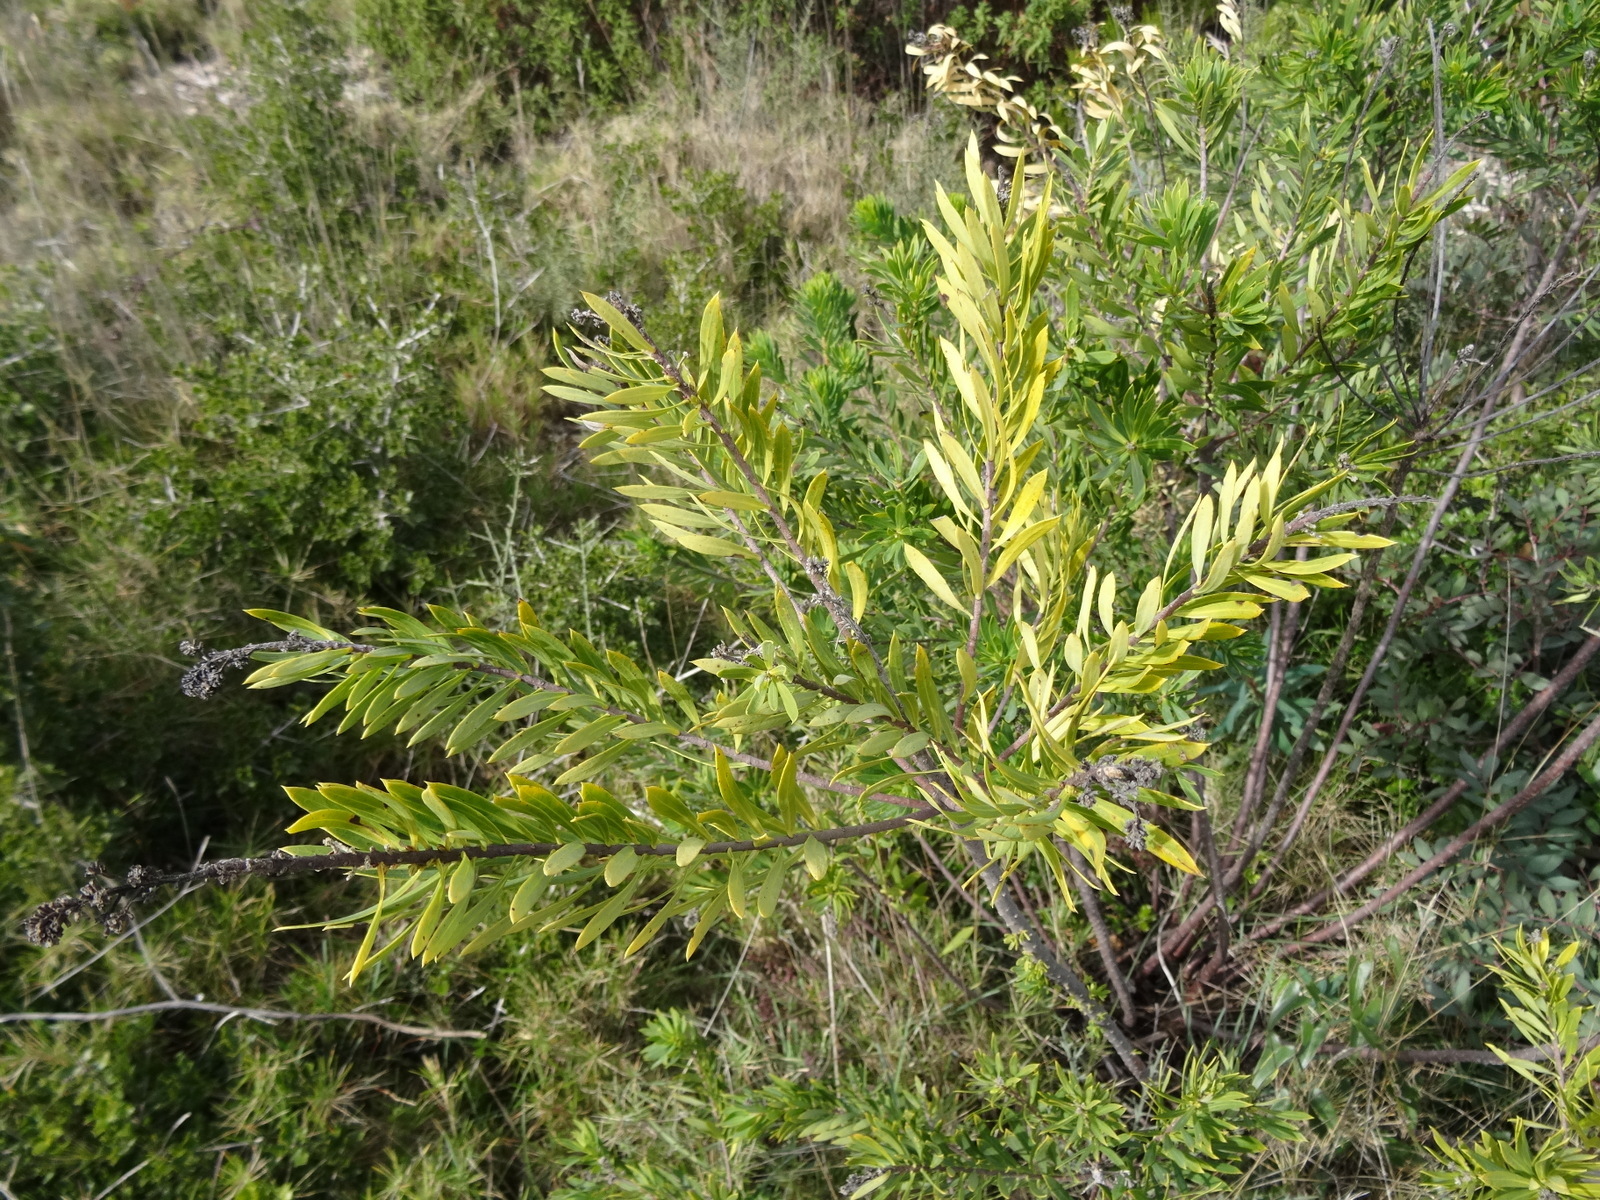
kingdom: Plantae
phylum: Tracheophyta
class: Magnoliopsida
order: Malvales
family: Thymelaeaceae
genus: Daphne
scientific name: Daphne gnidium
